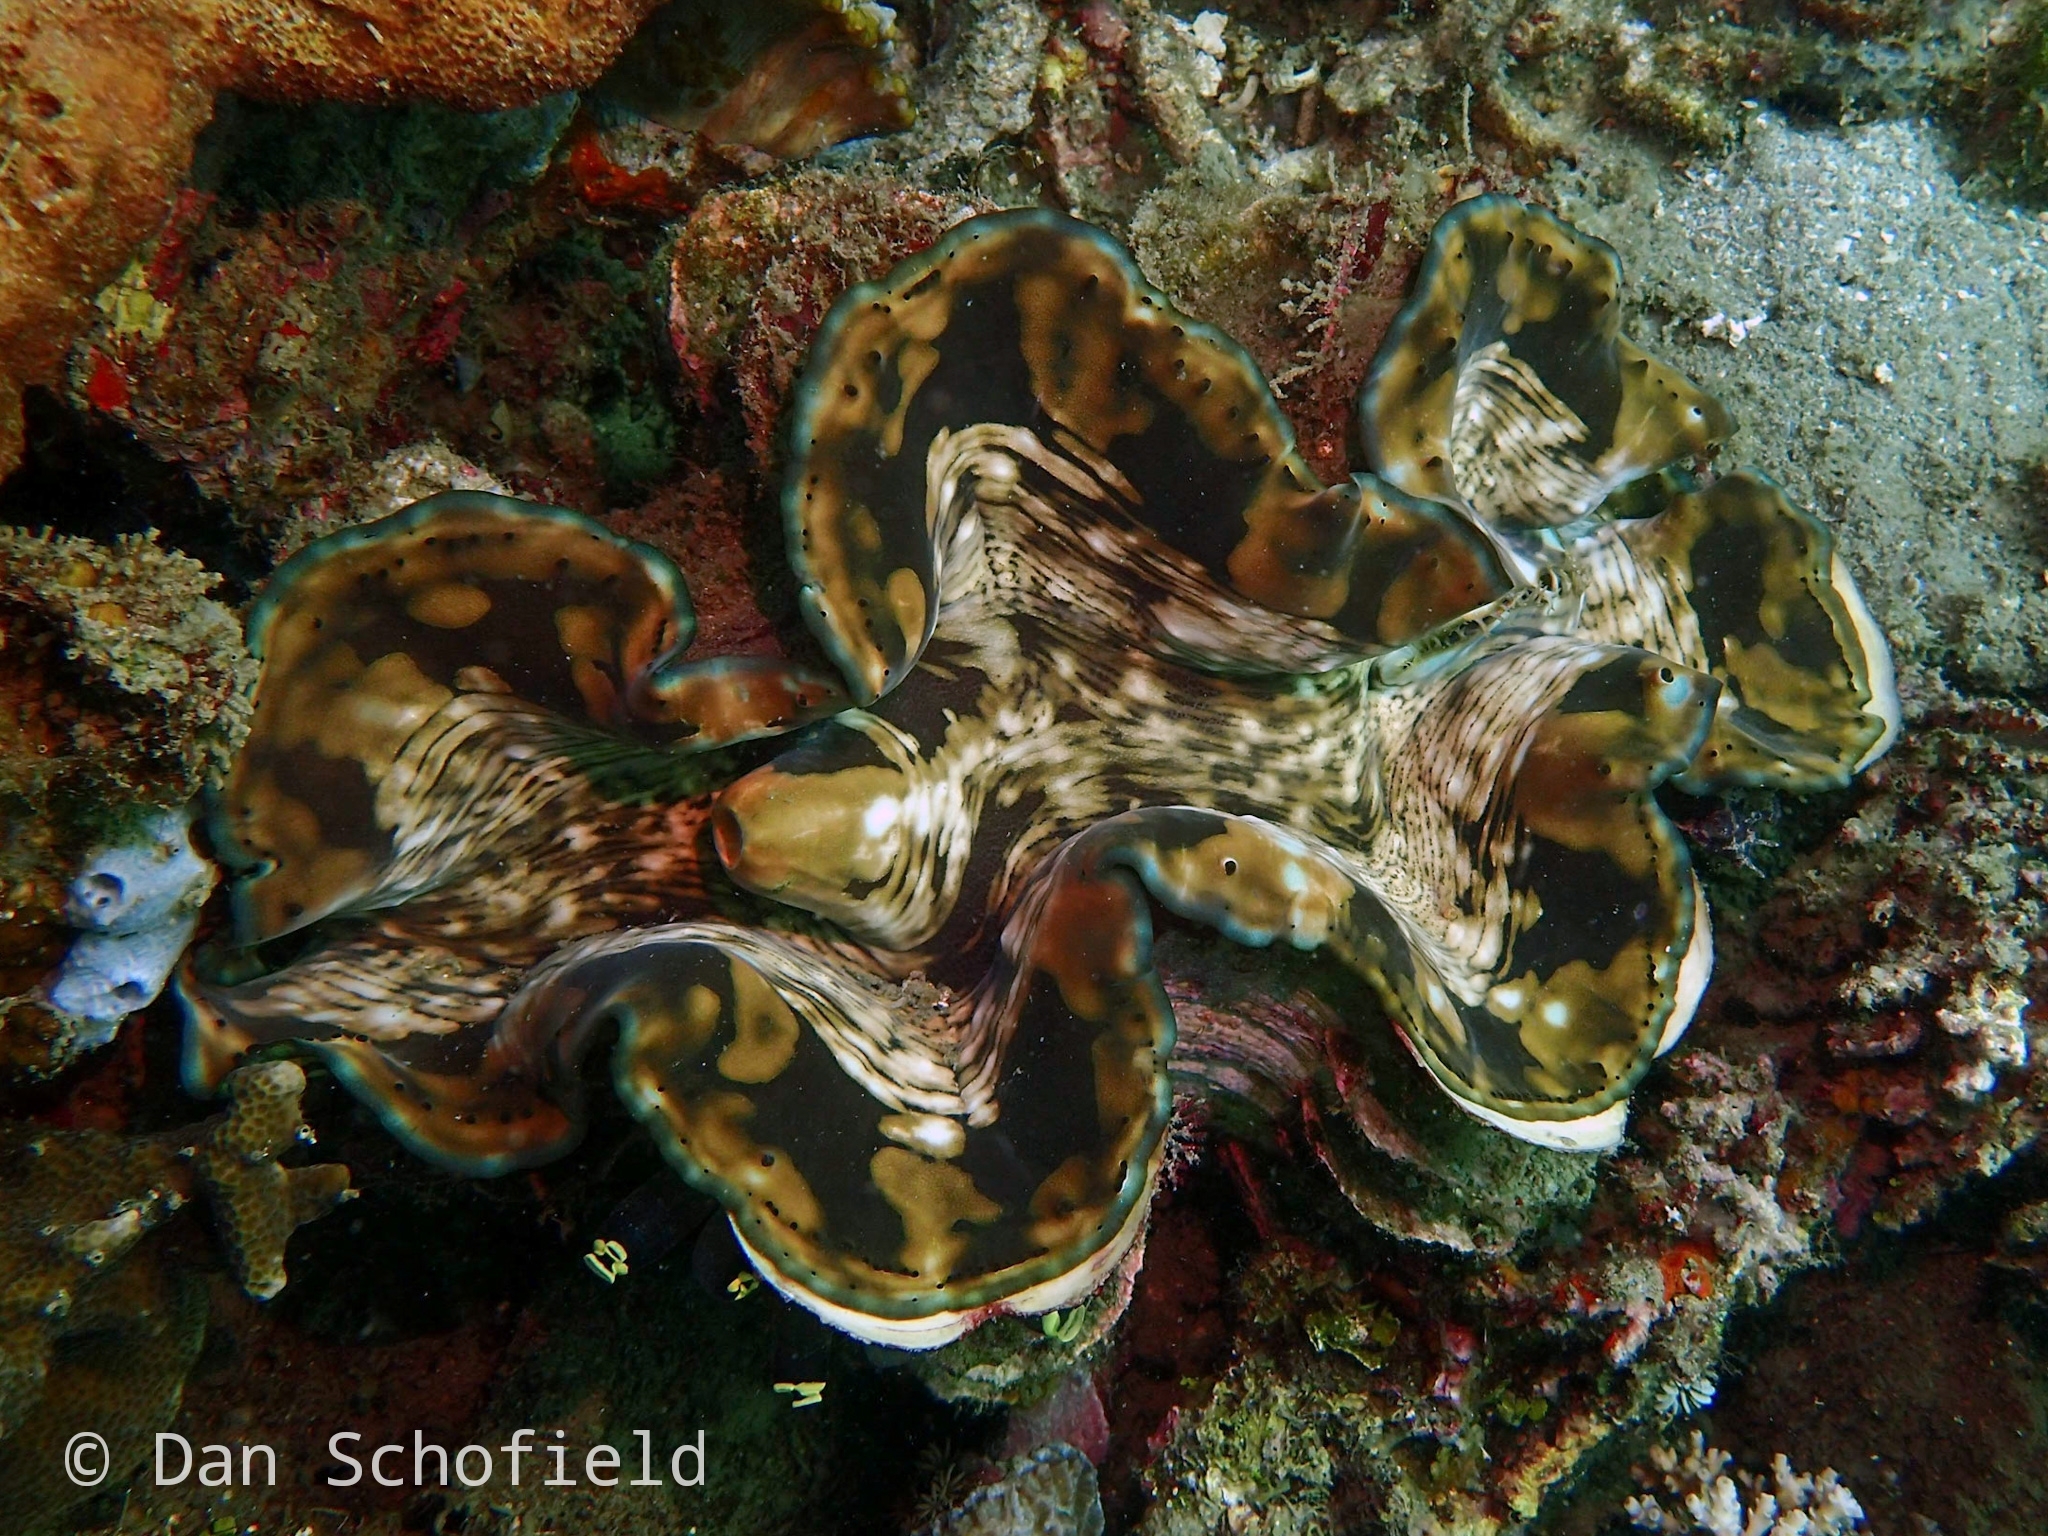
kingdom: Animalia
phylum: Mollusca
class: Bivalvia
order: Cardiida
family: Cardiidae
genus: Tridacna
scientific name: Tridacna squamosa
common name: Fluted clam
